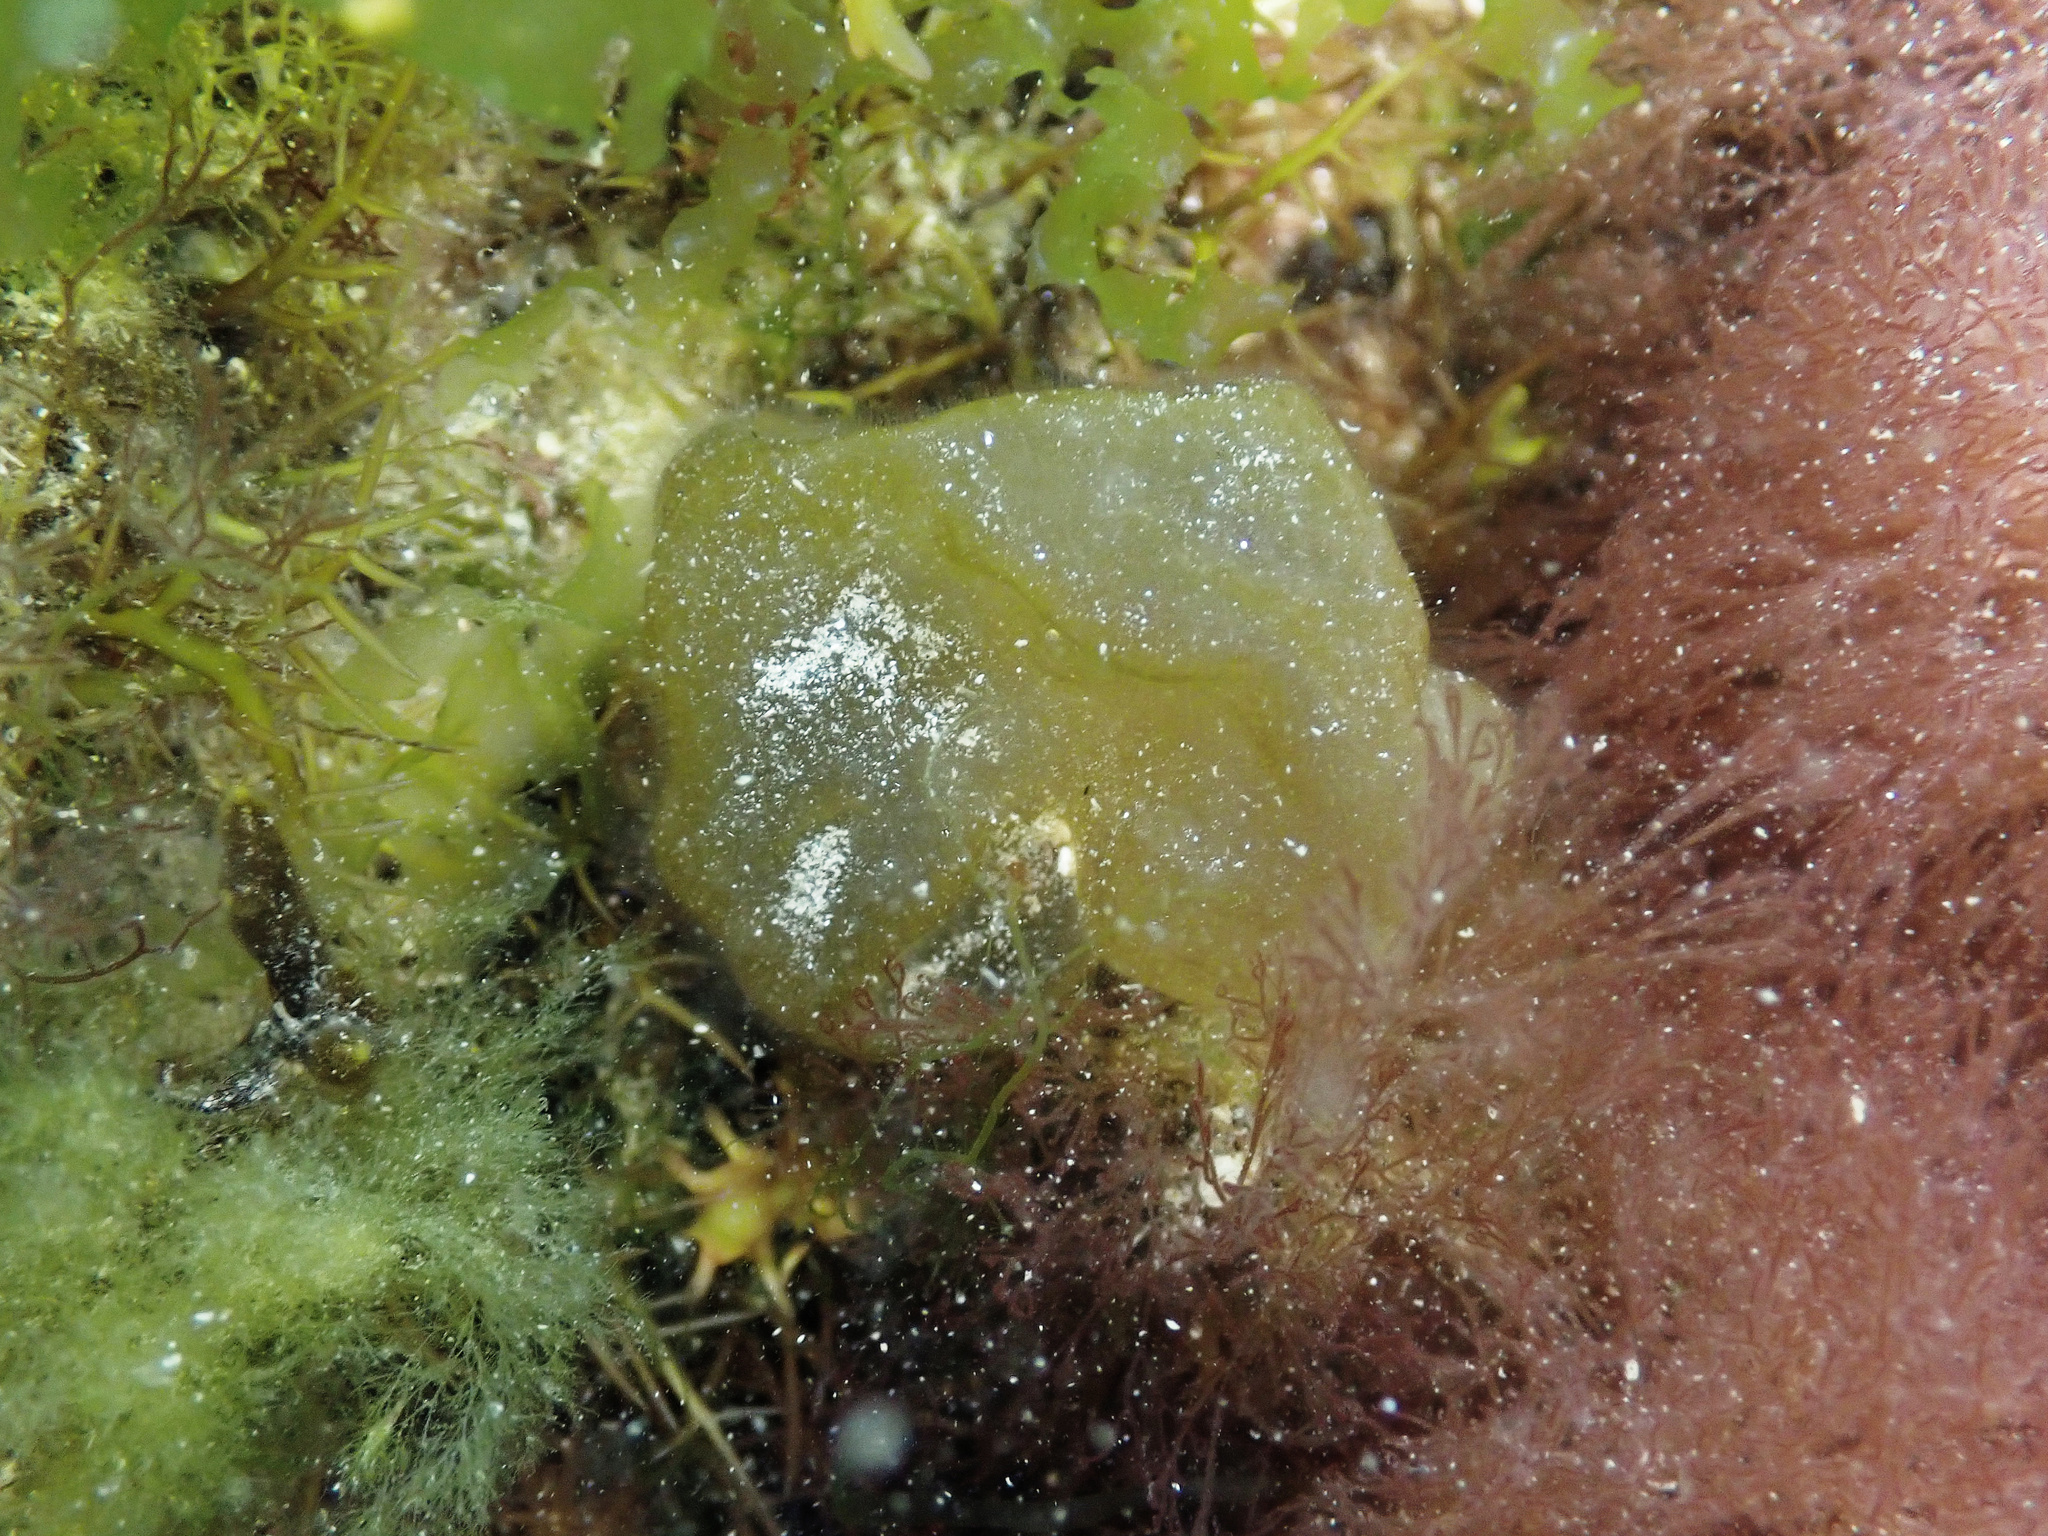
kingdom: Chromista
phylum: Ochrophyta
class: Phaeophyceae
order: Scytosiphonales
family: Scytosiphonaceae
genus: Colpomenia
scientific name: Colpomenia peregrina
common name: Oyster thief
